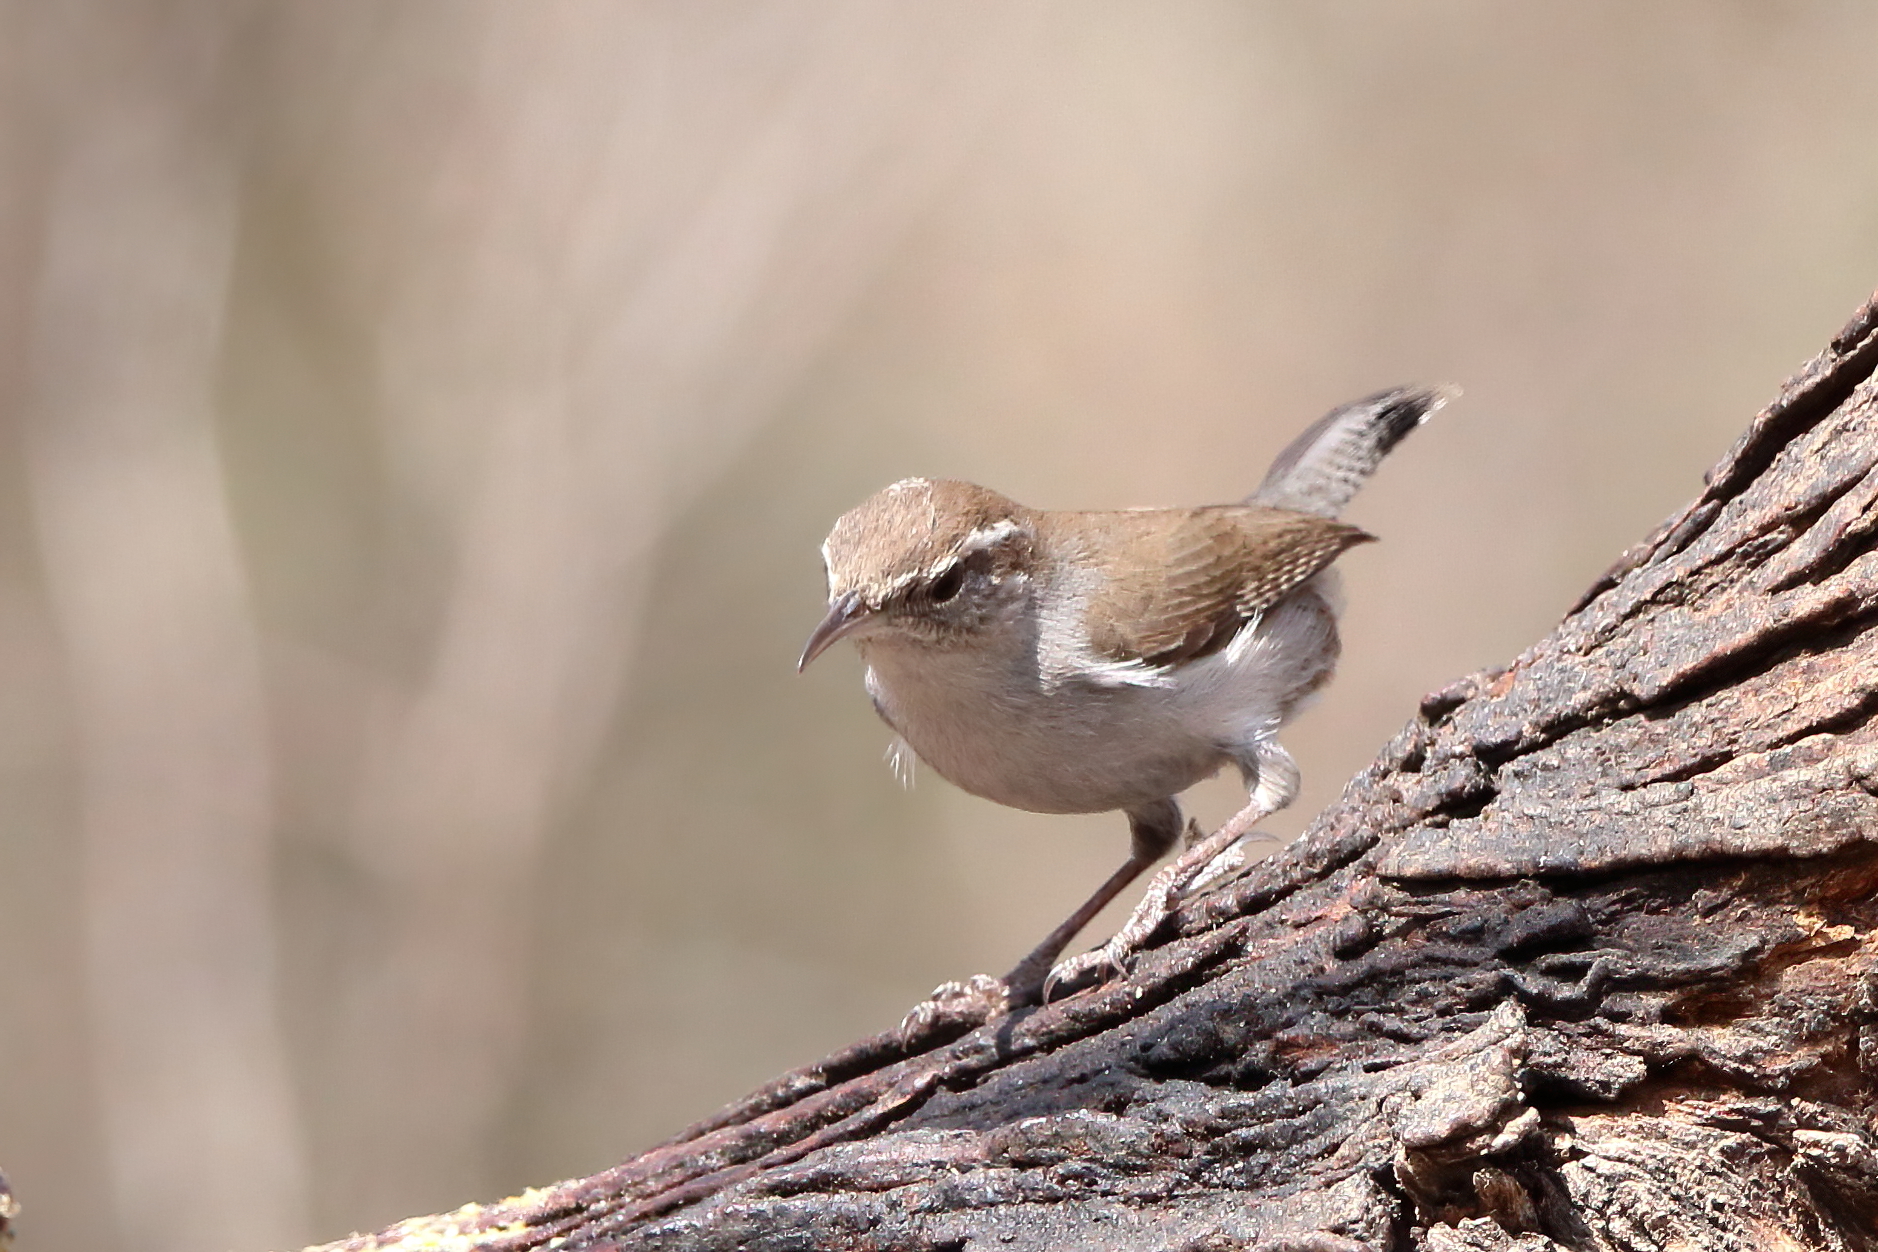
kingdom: Animalia
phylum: Chordata
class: Aves
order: Passeriformes
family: Troglodytidae
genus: Thryomanes
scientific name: Thryomanes bewickii
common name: Bewick's wren
